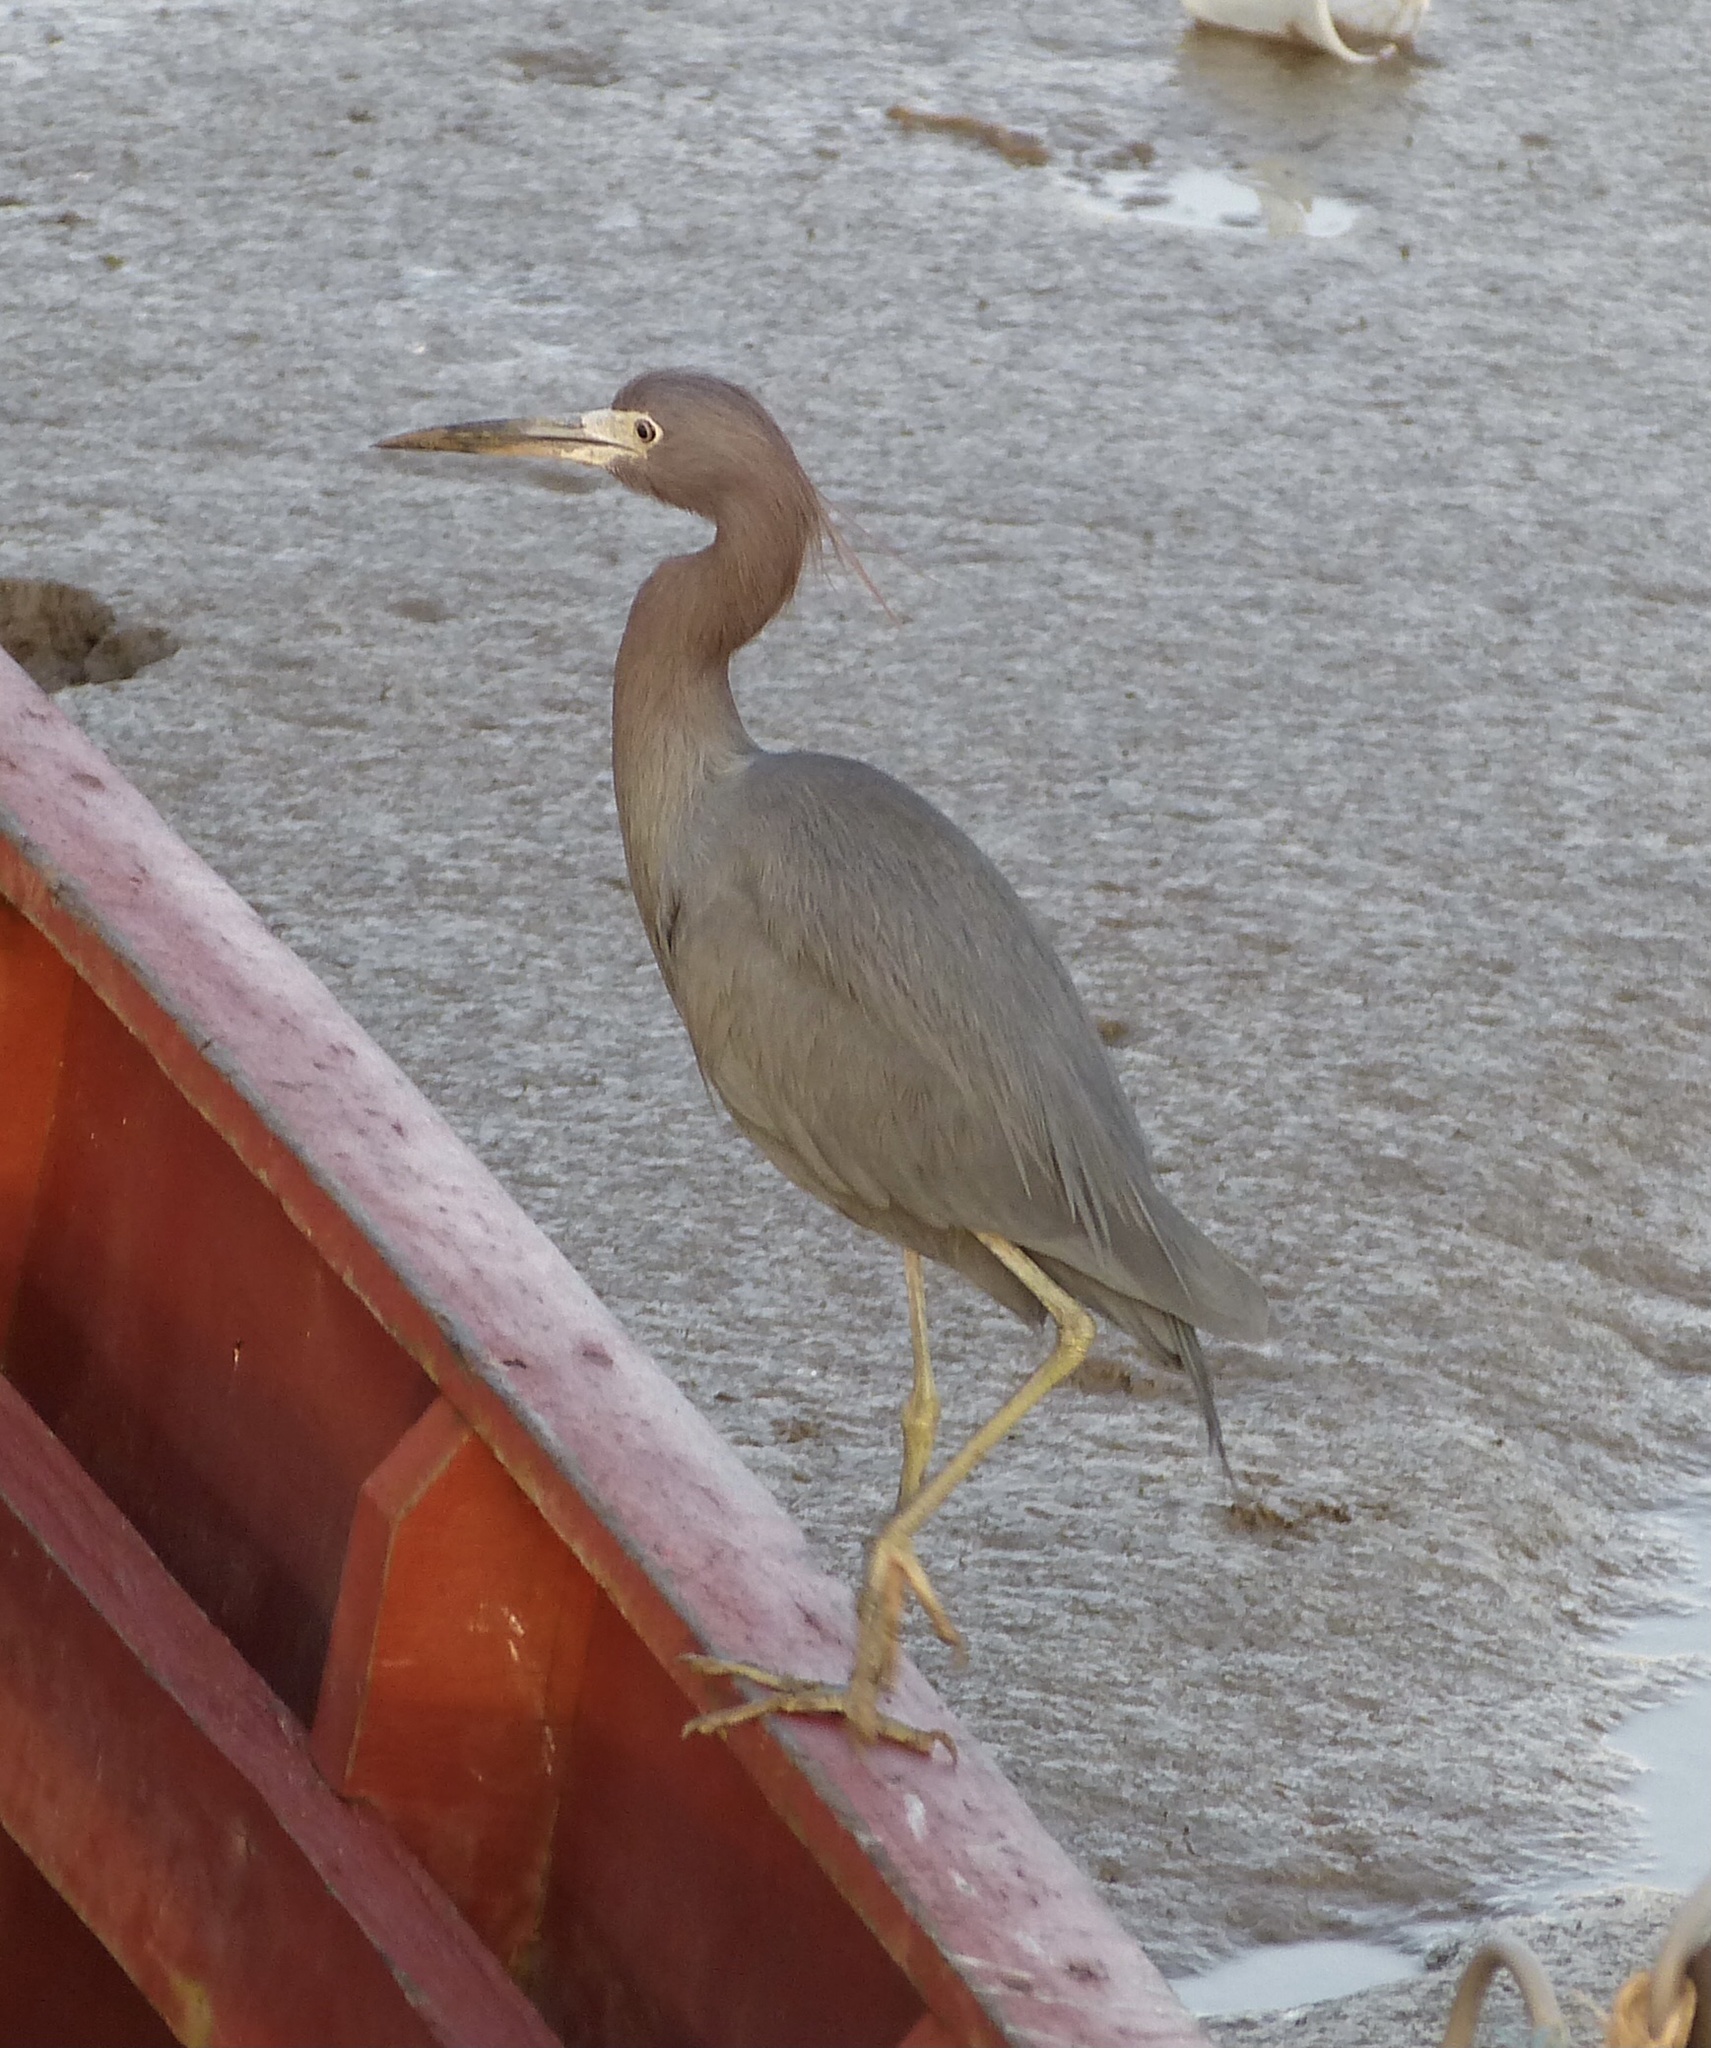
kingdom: Animalia
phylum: Chordata
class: Aves
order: Pelecaniformes
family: Ardeidae
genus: Egretta
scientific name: Egretta caerulea
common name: Little blue heron
